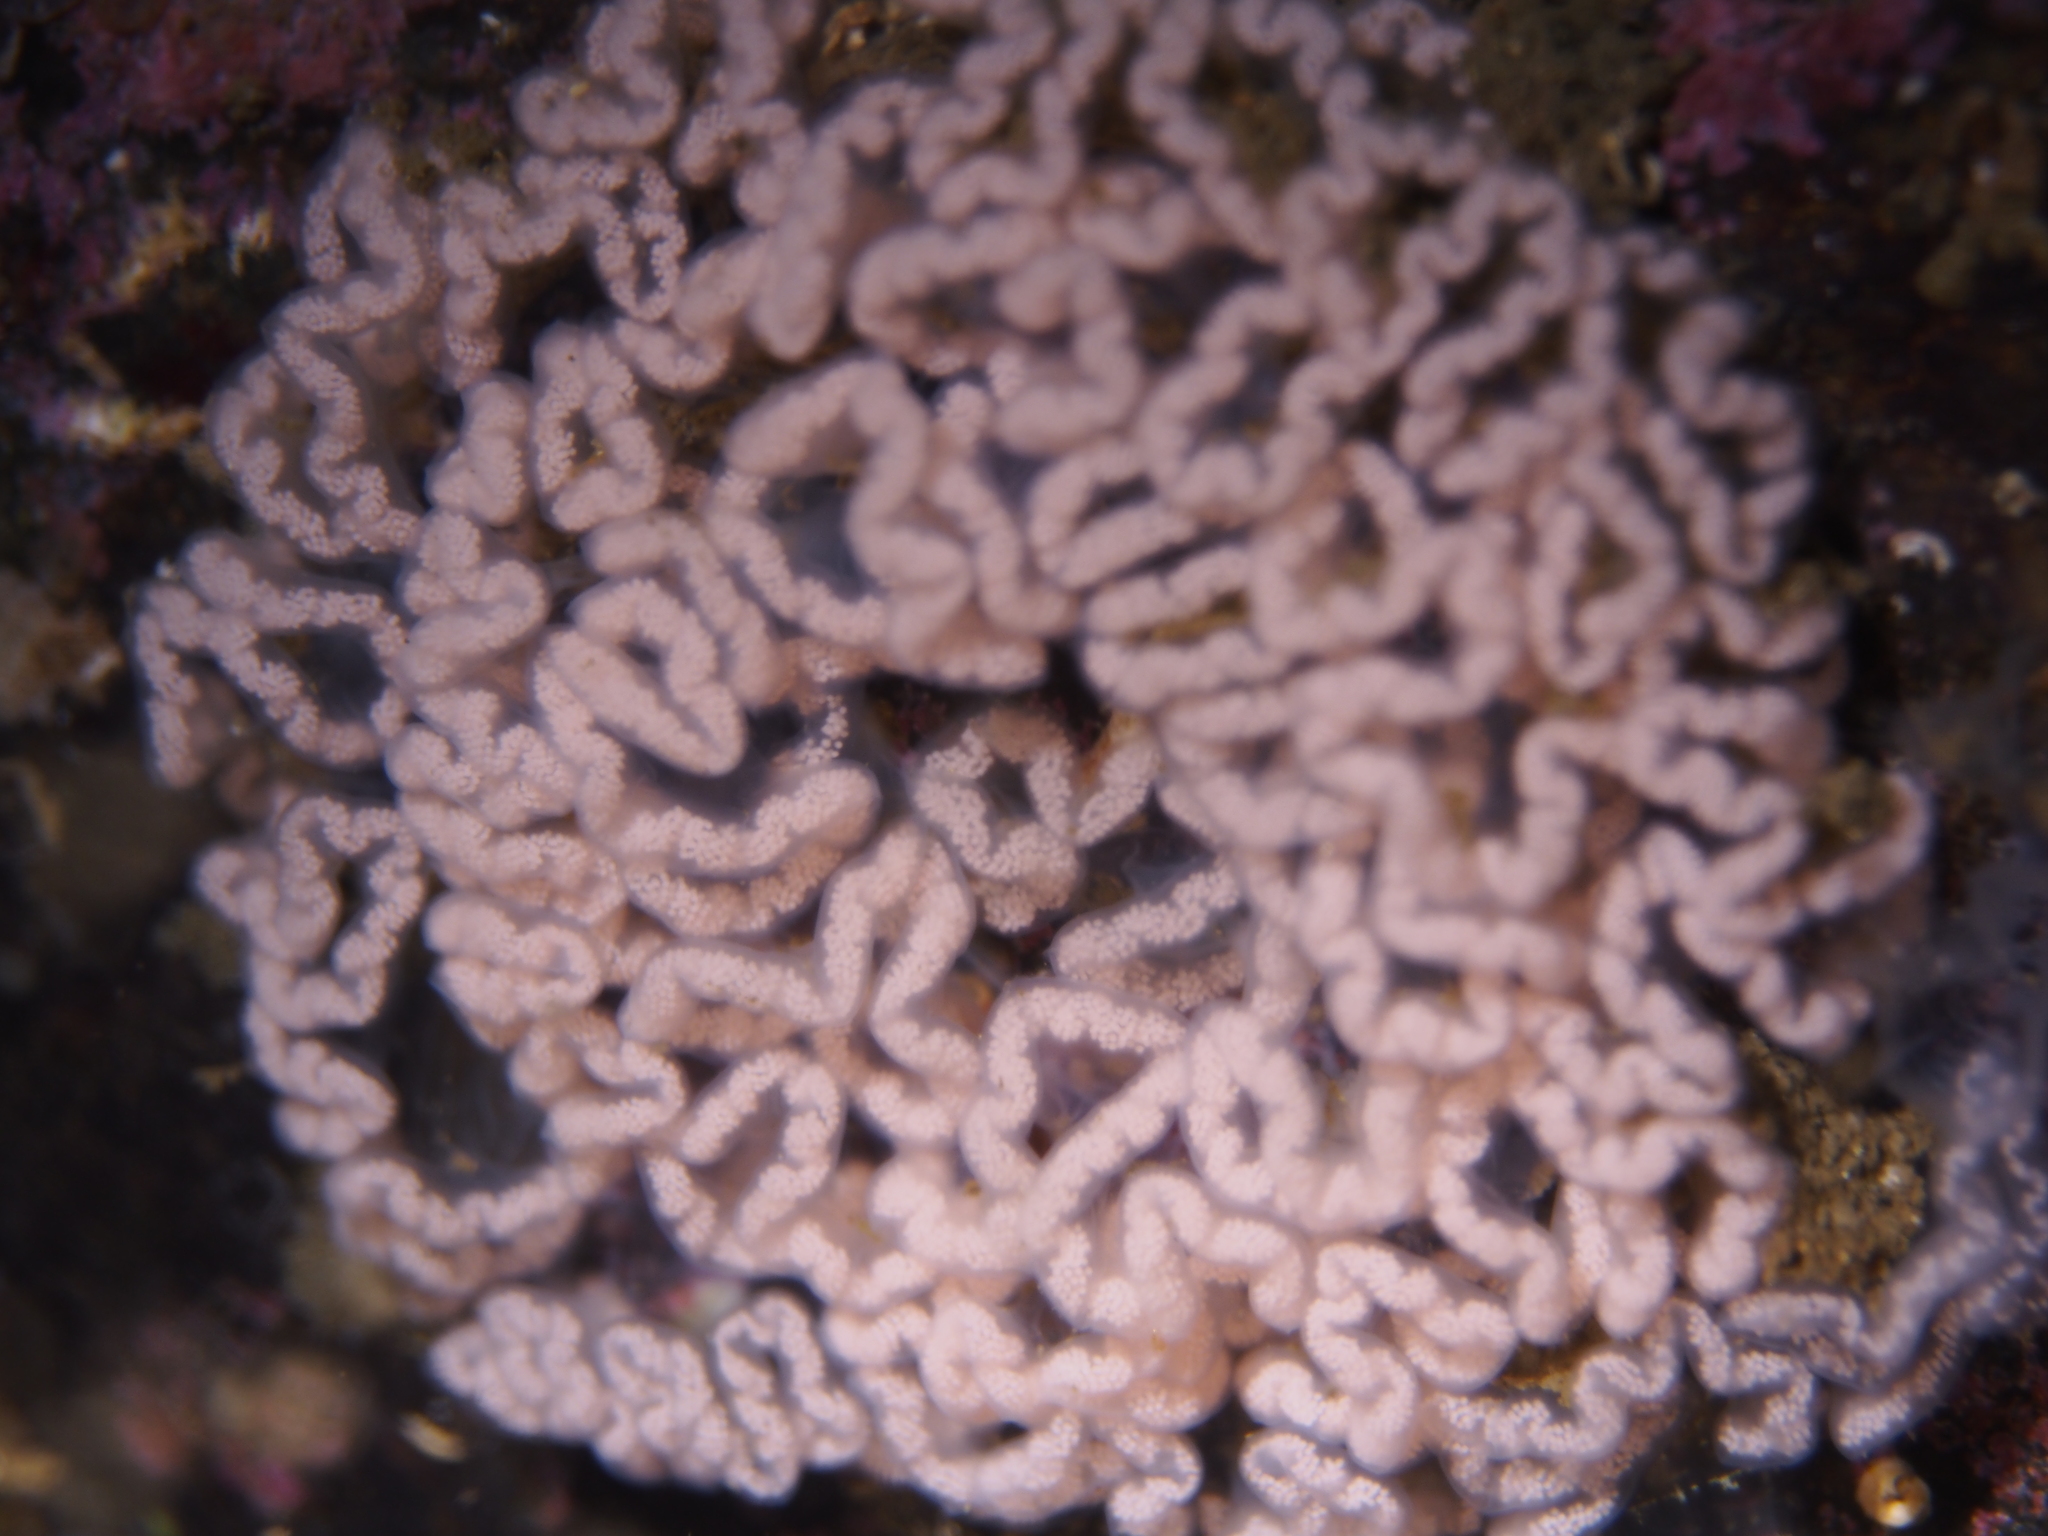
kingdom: Animalia
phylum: Mollusca
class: Gastropoda
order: Nudibranchia
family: Tritoniidae
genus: Tritonia
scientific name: Tritonia hombergii
